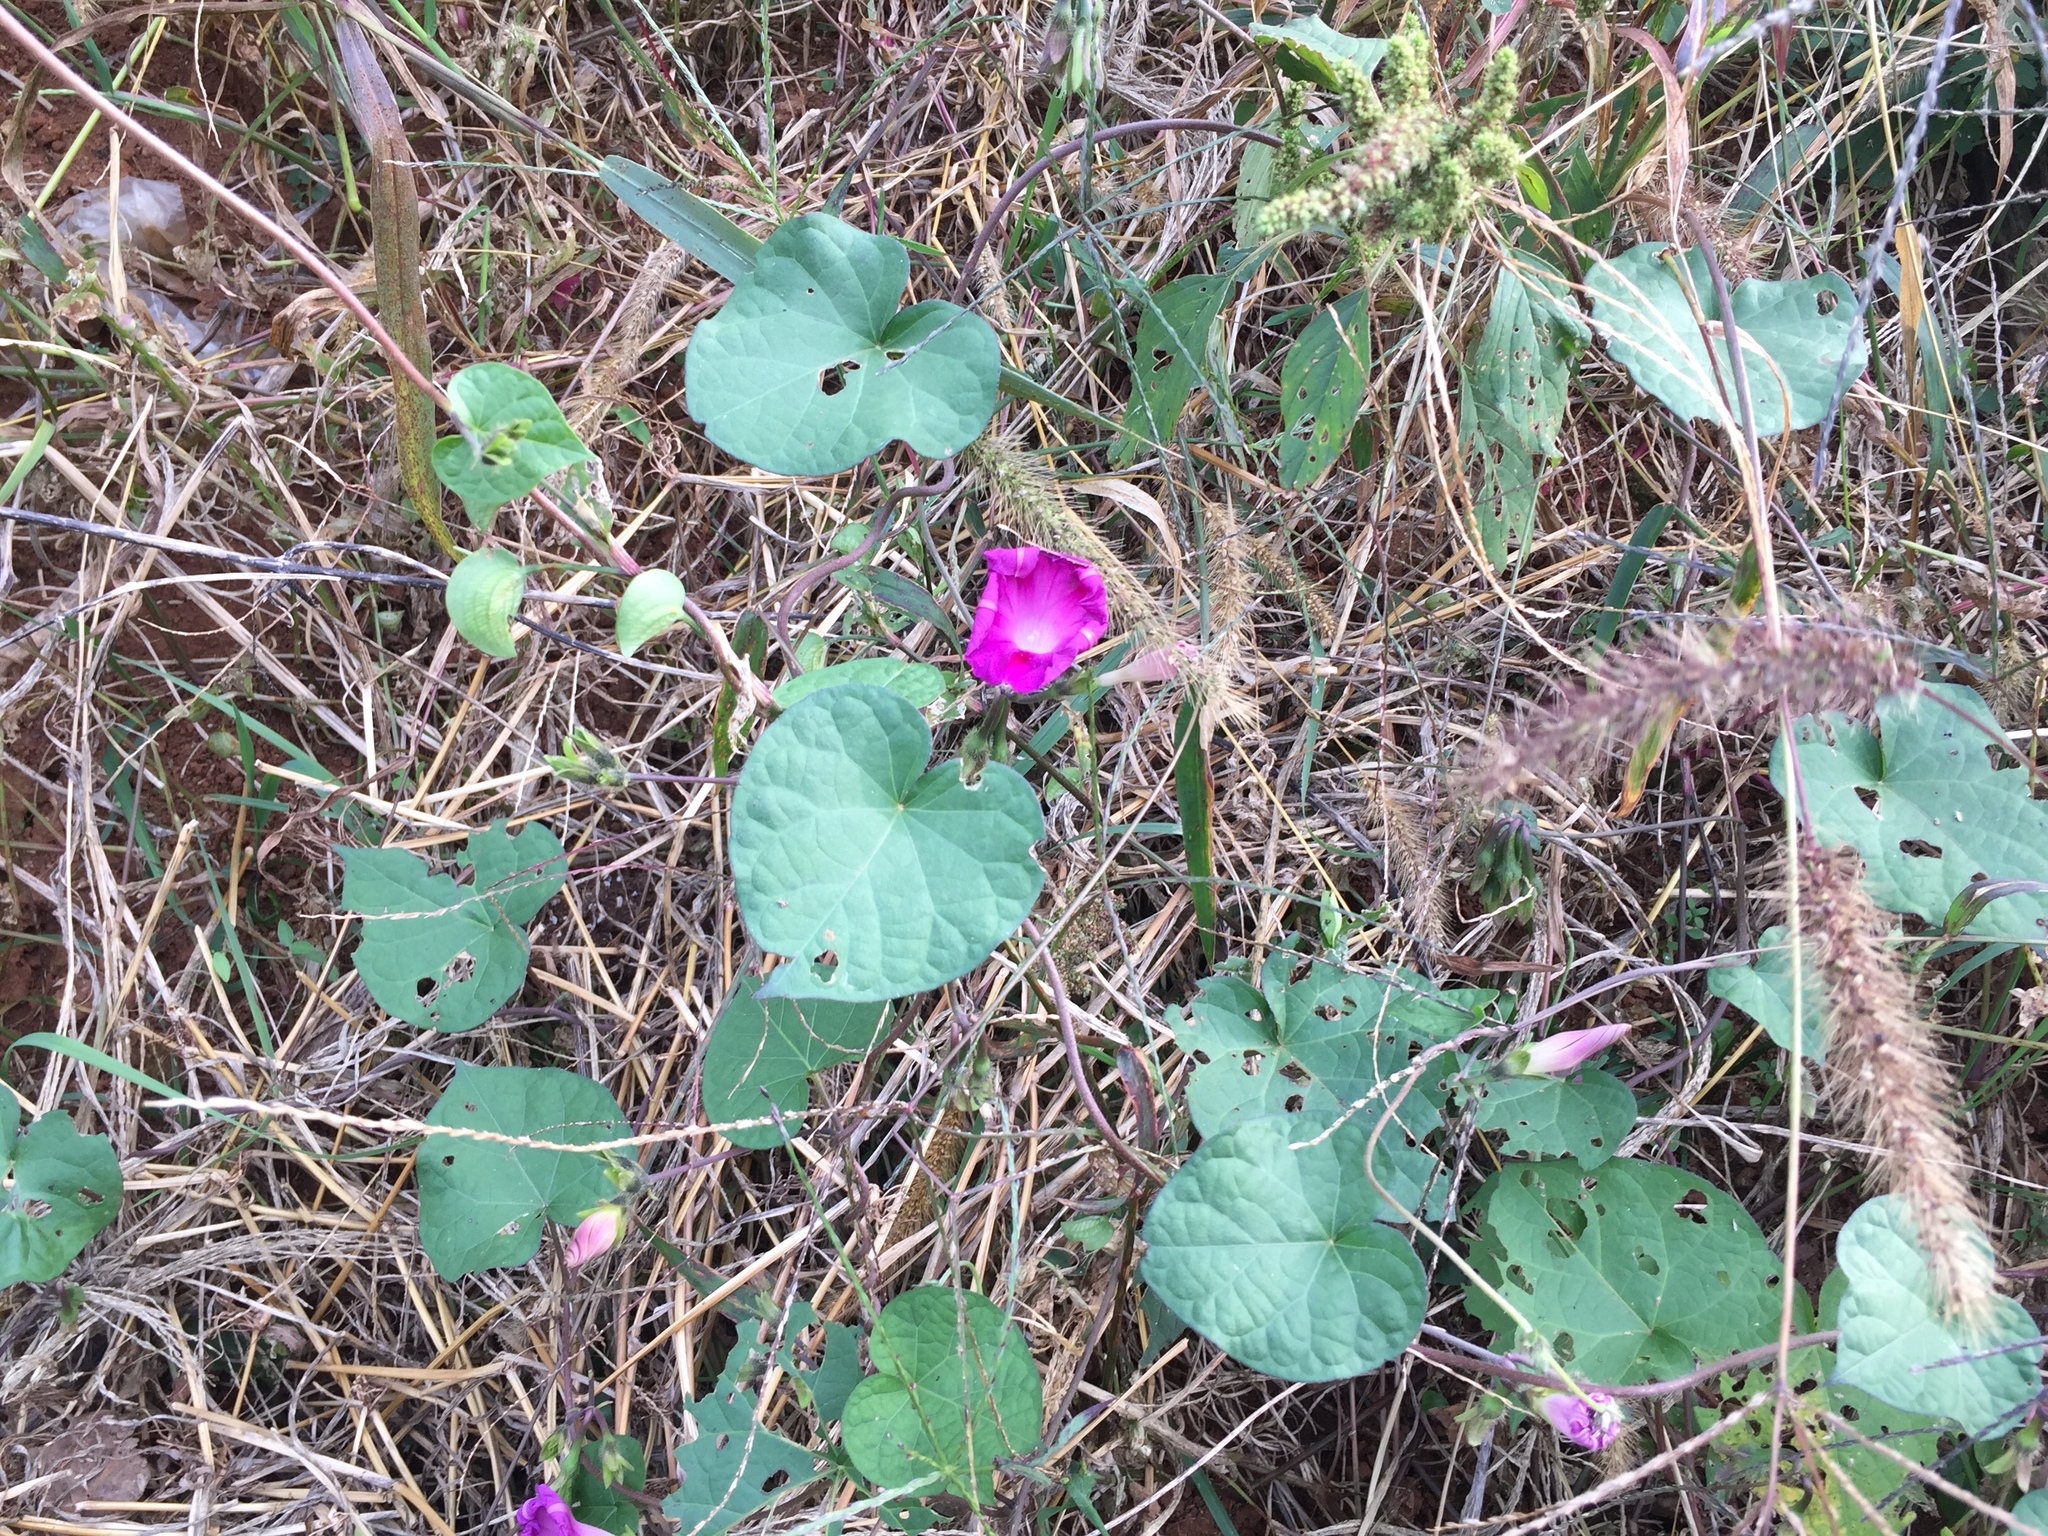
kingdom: Plantae
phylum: Tracheophyta
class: Magnoliopsida
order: Solanales
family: Convolvulaceae
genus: Ipomoea
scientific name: Ipomoea purpurea
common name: Common morning-glory
